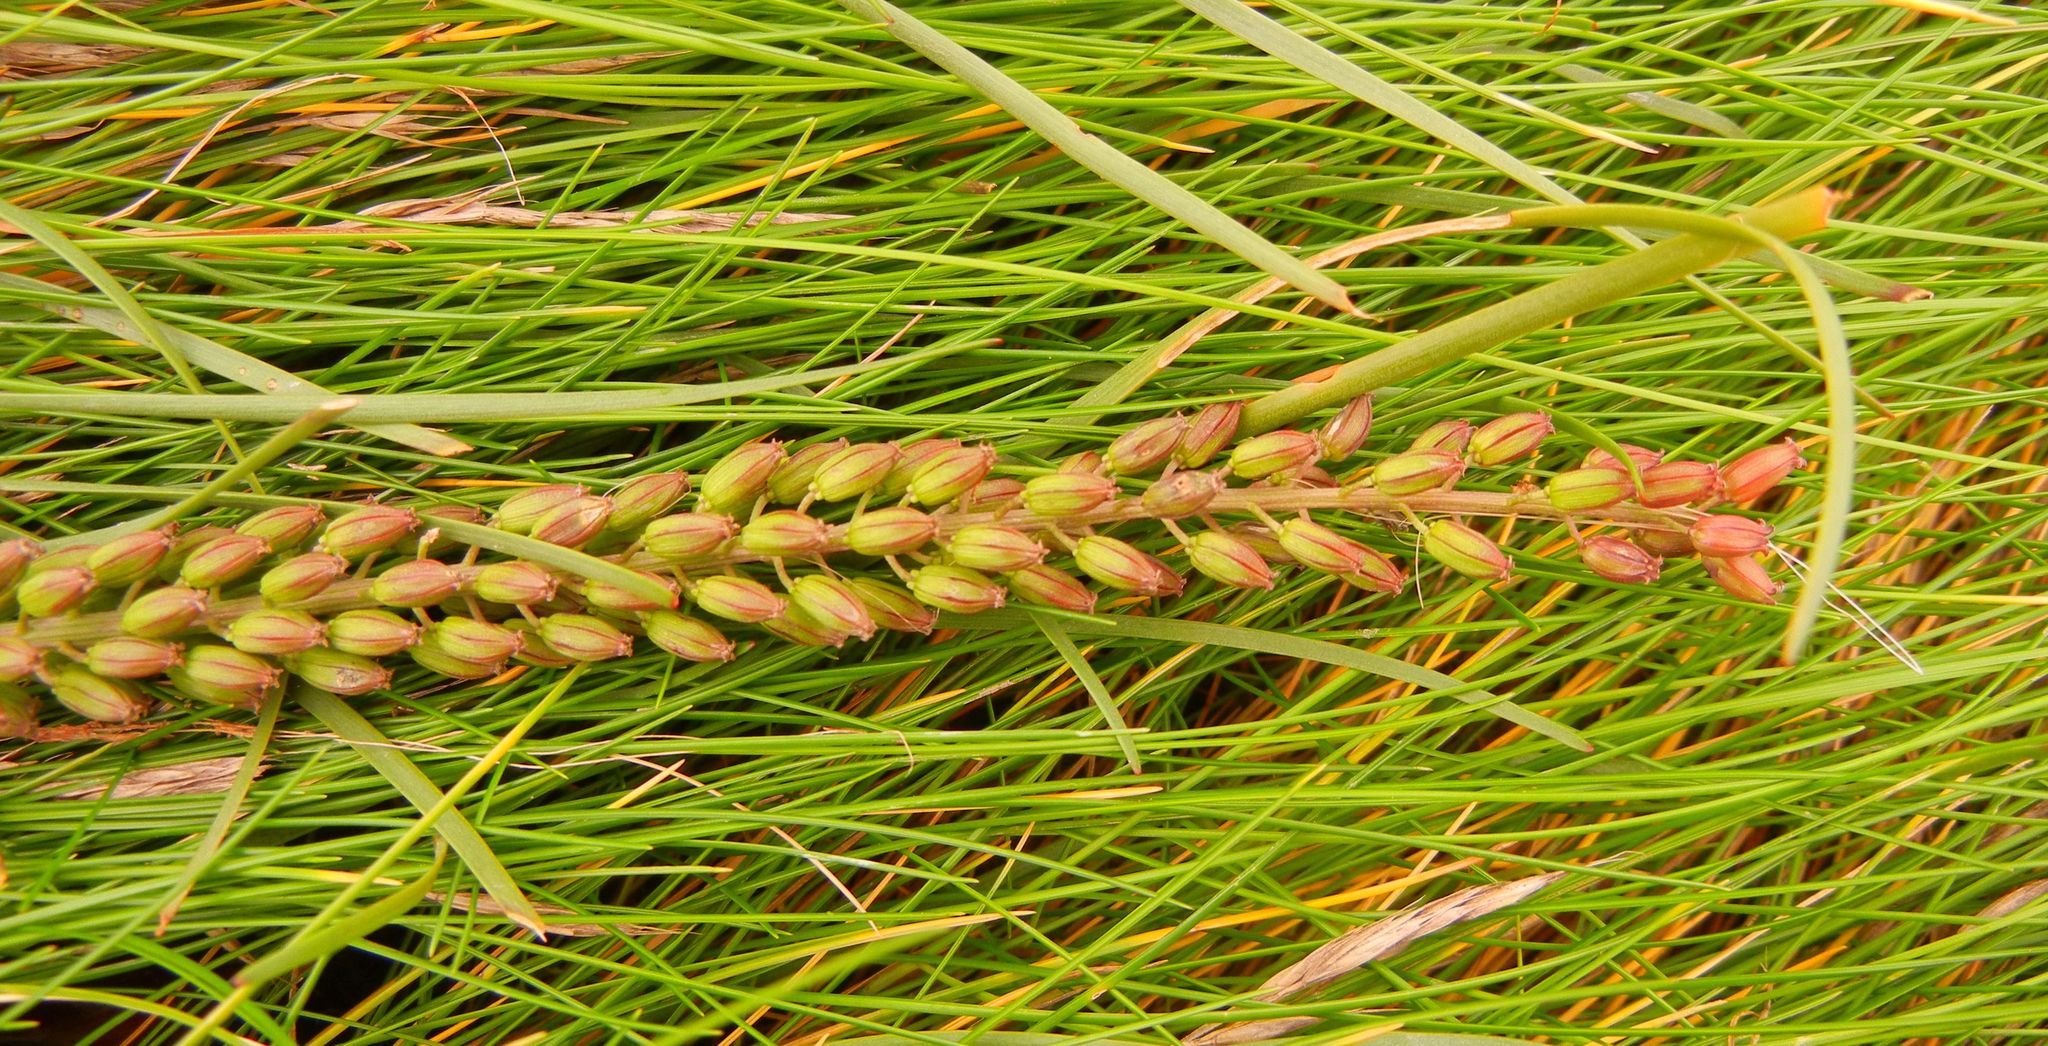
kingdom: Plantae
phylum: Tracheophyta
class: Liliopsida
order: Alismatales
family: Juncaginaceae
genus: Triglochin
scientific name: Triglochin maritima
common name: Sea arrowgrass
